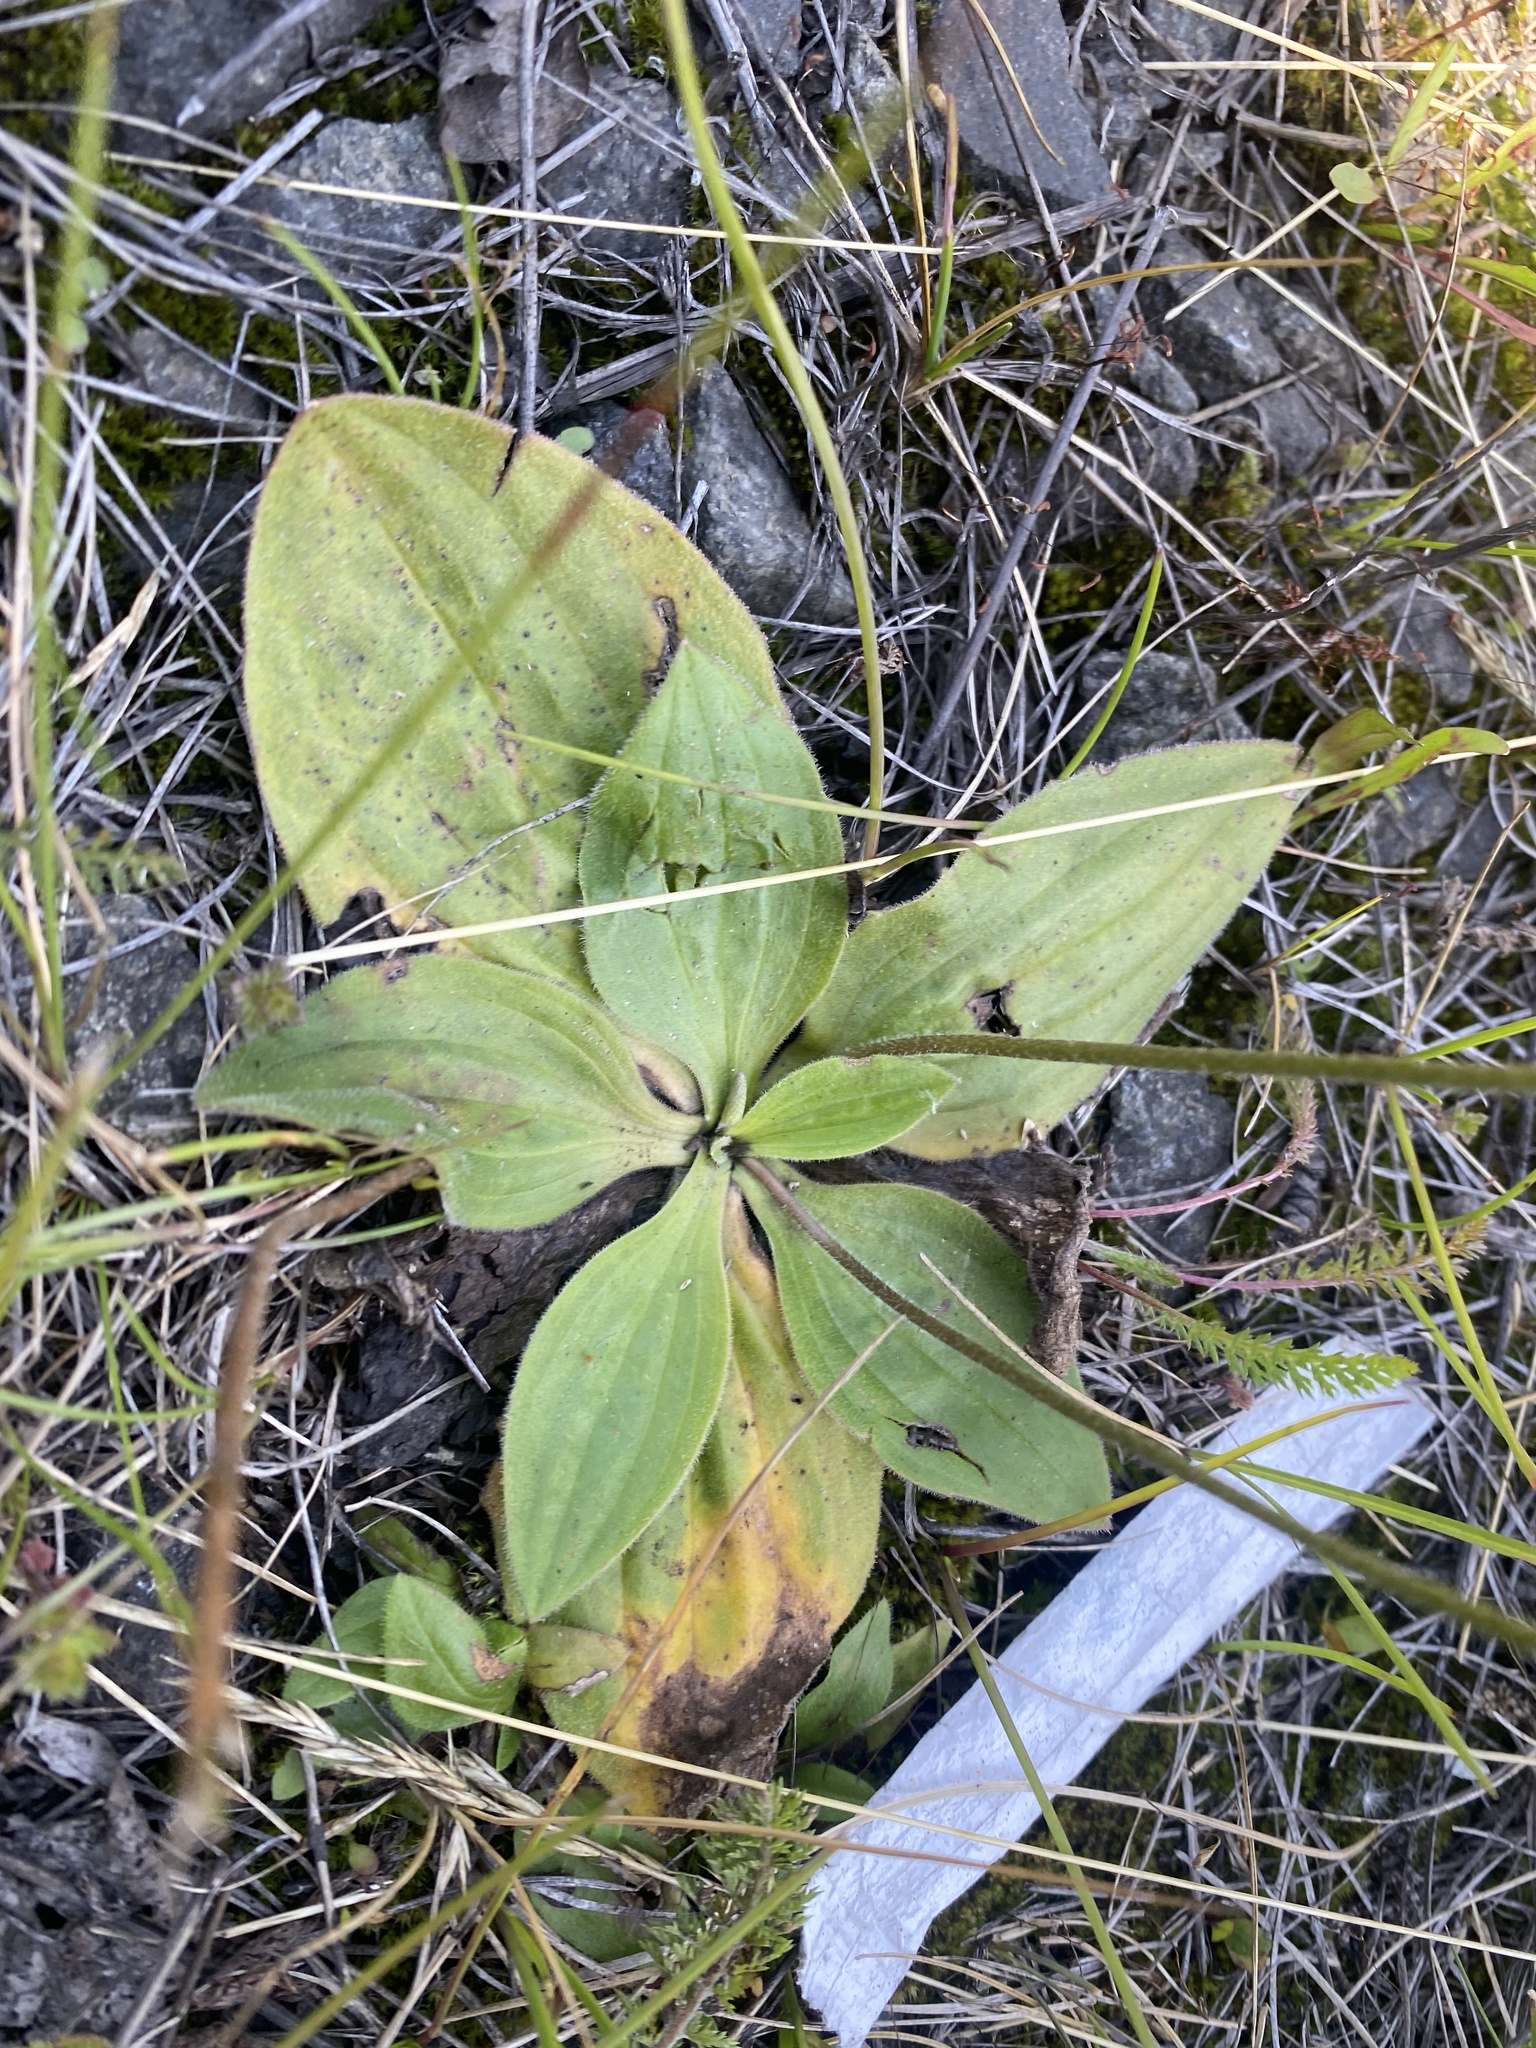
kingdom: Plantae
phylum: Tracheophyta
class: Magnoliopsida
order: Lamiales
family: Plantaginaceae
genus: Plantago
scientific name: Plantago media
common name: Hoary plantain
